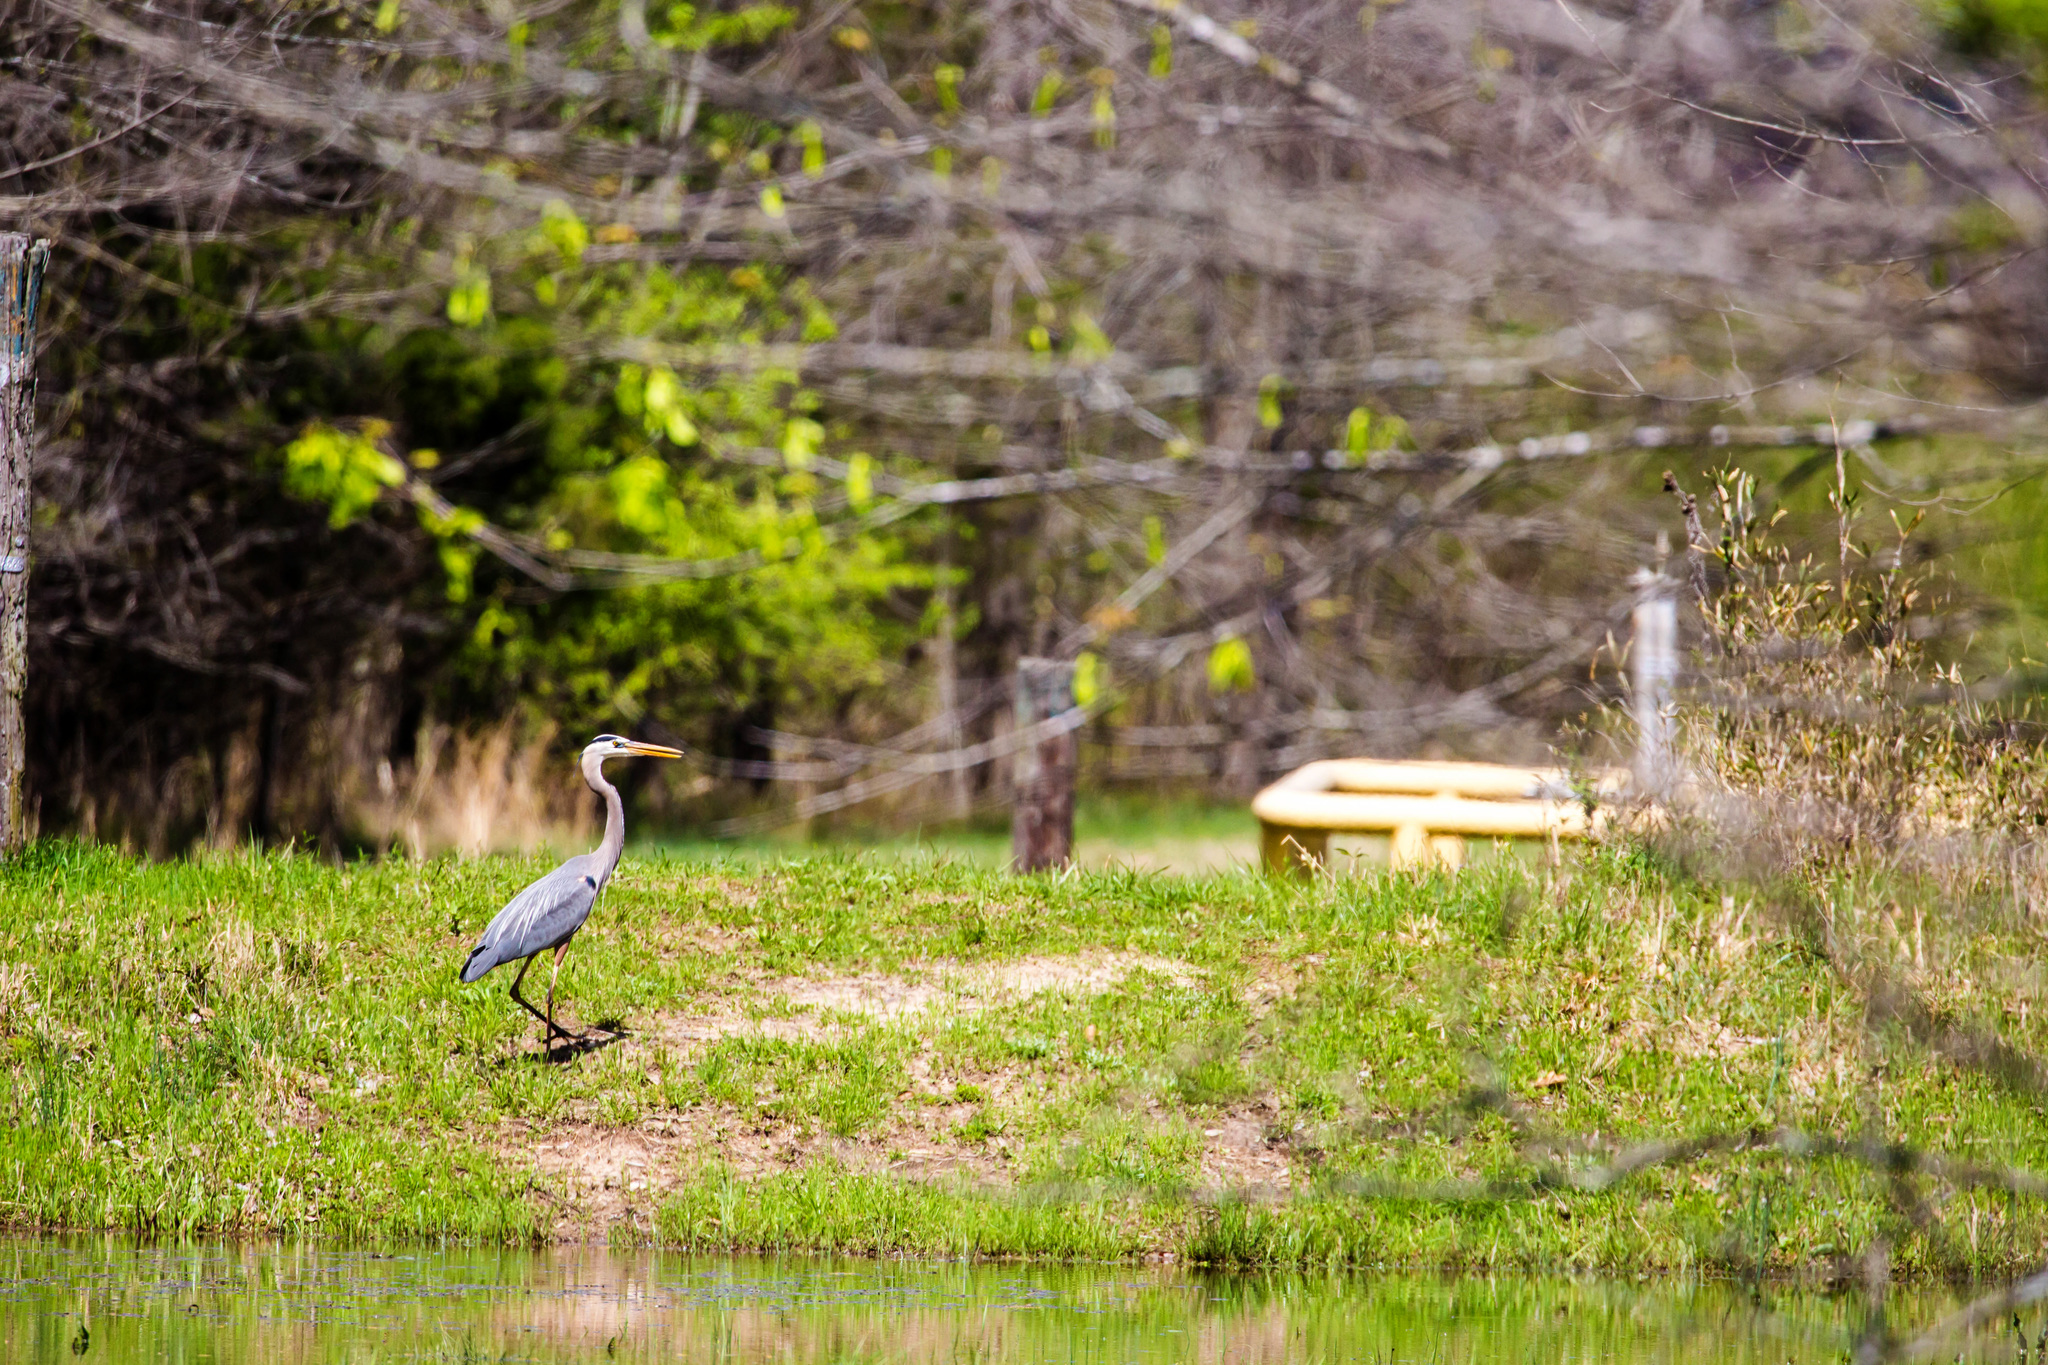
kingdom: Animalia
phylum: Chordata
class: Aves
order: Pelecaniformes
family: Ardeidae
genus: Ardea
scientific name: Ardea herodias
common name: Great blue heron
